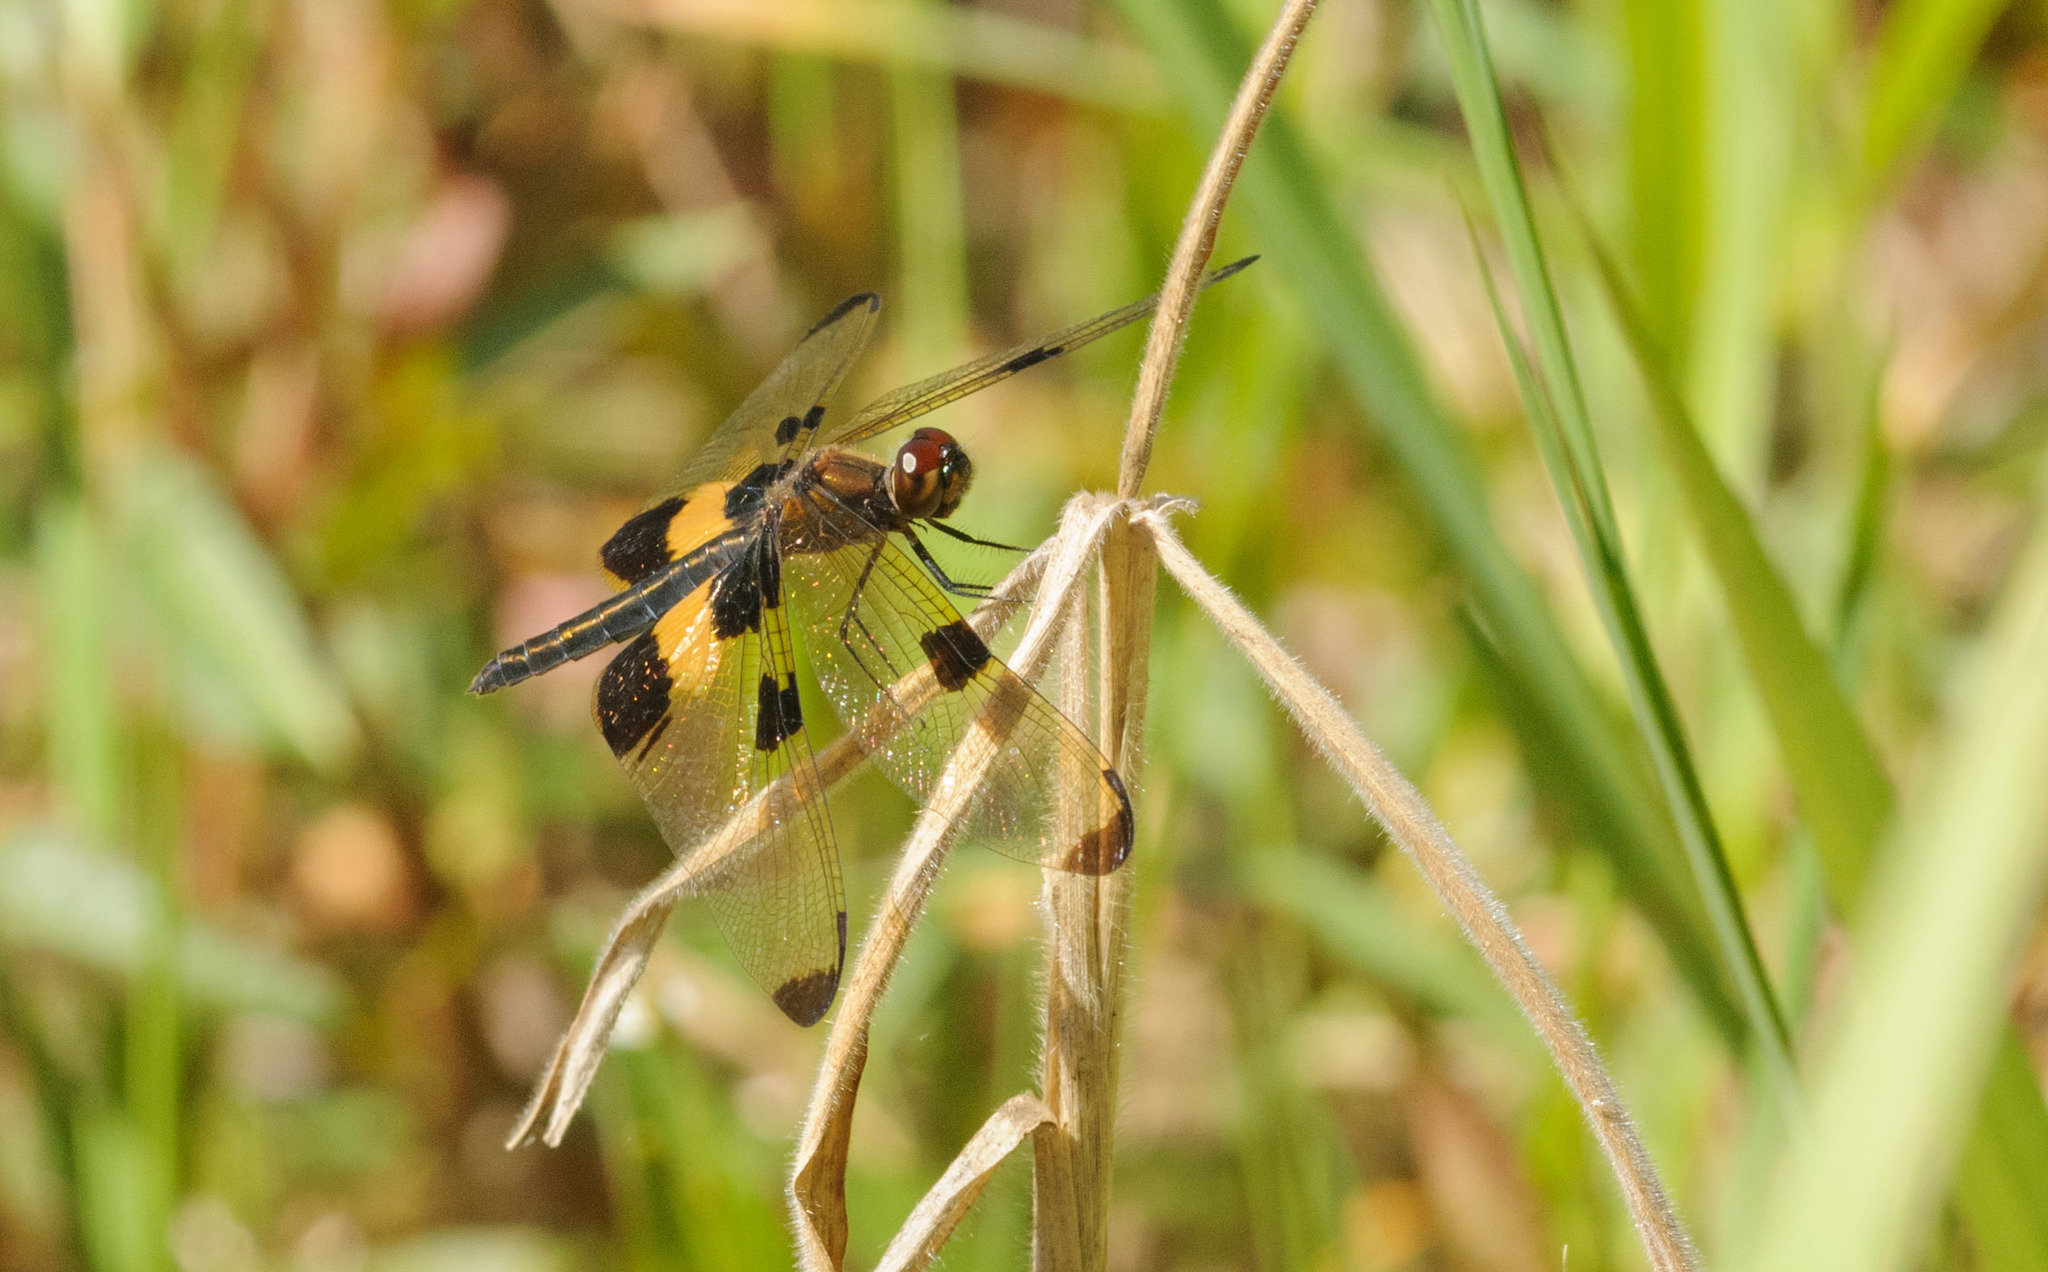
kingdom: Animalia
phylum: Arthropoda
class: Insecta
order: Odonata
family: Libellulidae
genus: Rhyothemis
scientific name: Rhyothemis phyllis
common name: Yellow-barred flutterer
